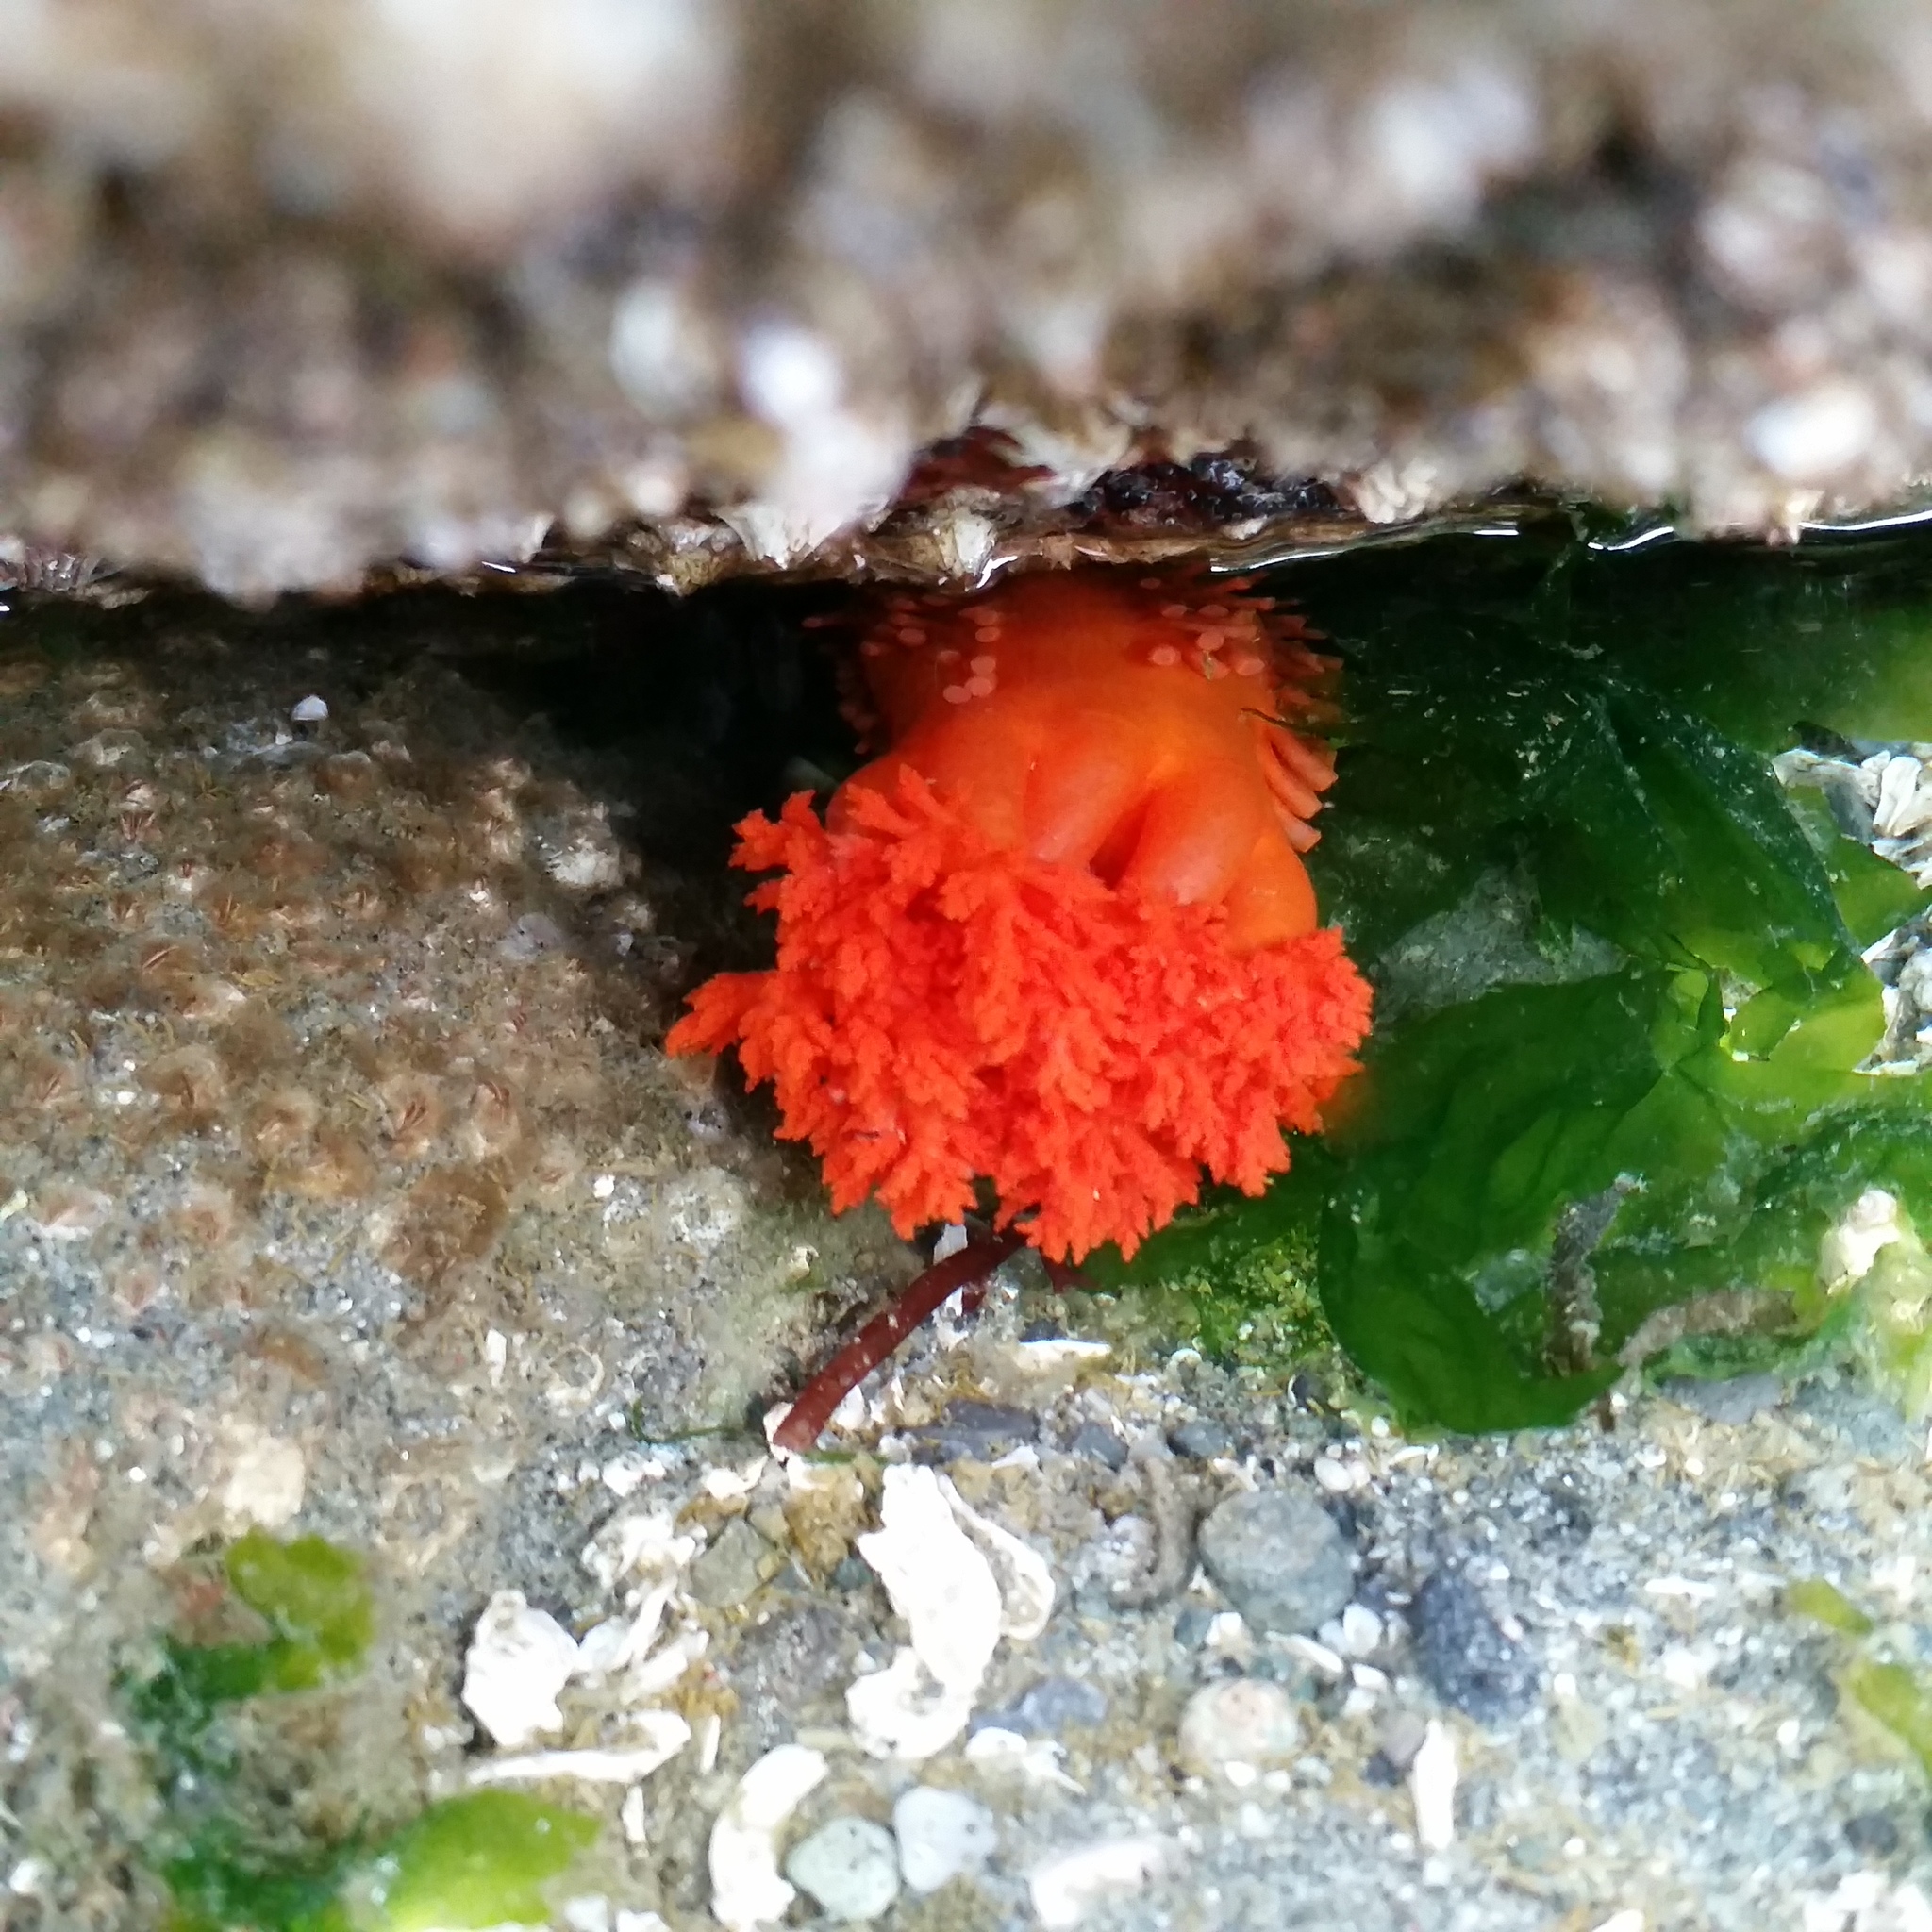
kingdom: Animalia
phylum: Echinodermata
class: Holothuroidea
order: Dendrochirotida
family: Cucumariidae
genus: Cucumaria
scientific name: Cucumaria miniata
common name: Orange sea cucumber
